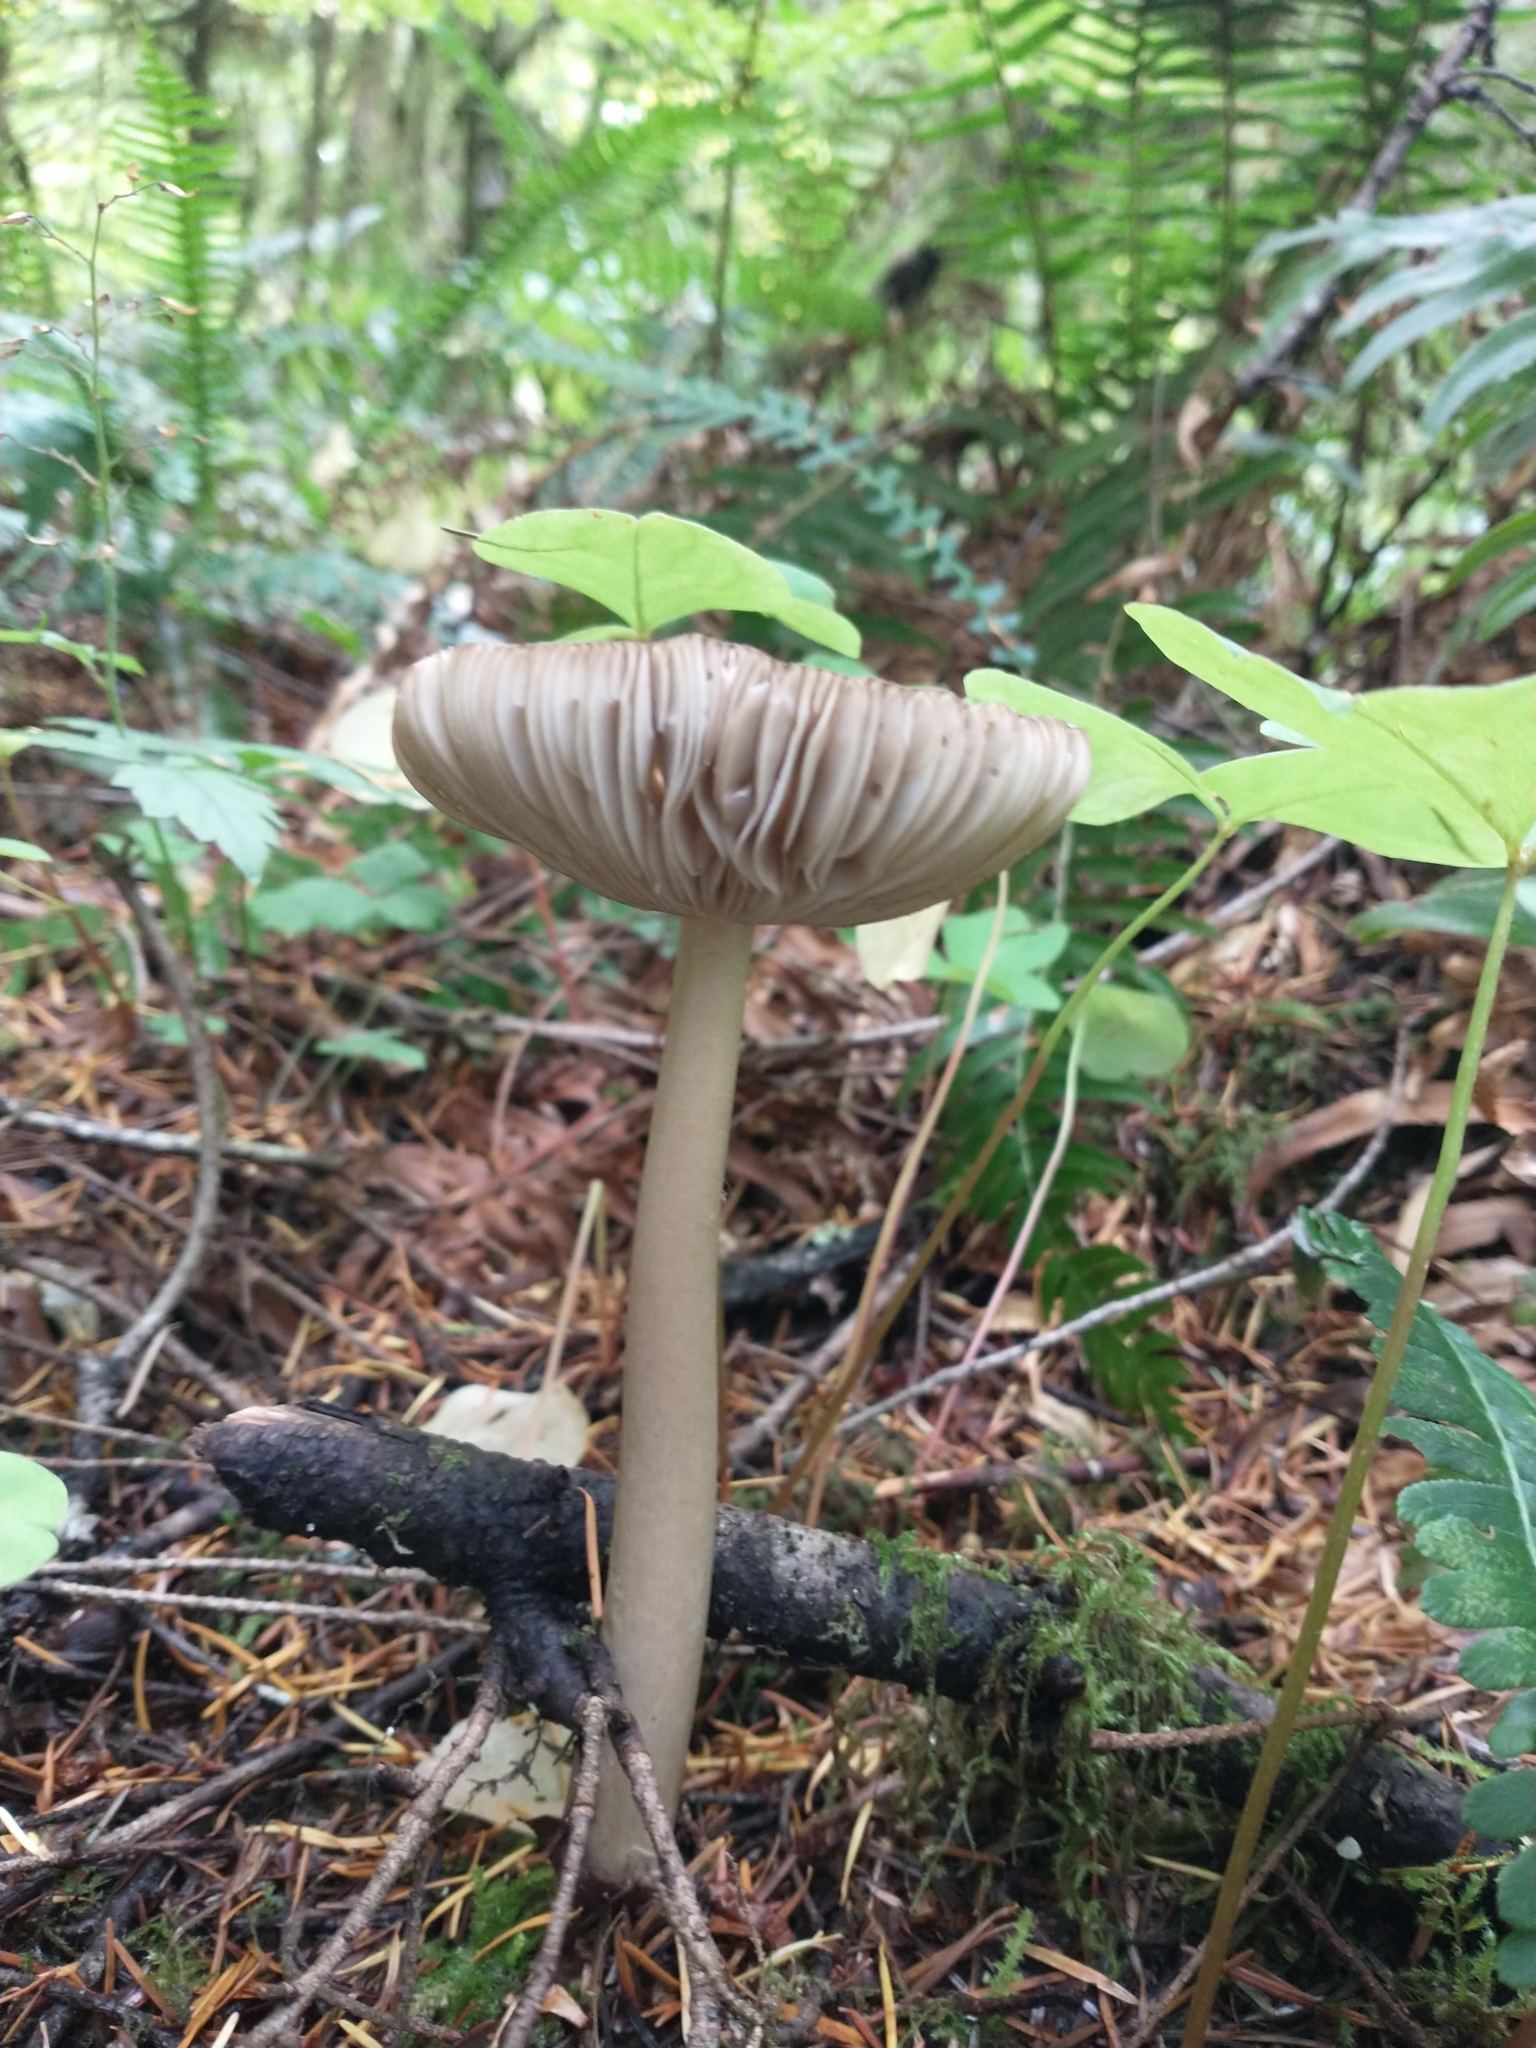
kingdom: Fungi
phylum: Basidiomycota
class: Agaricomycetes
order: Agaricales
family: Amanitaceae
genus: Amanita
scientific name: Amanita pachycolea
